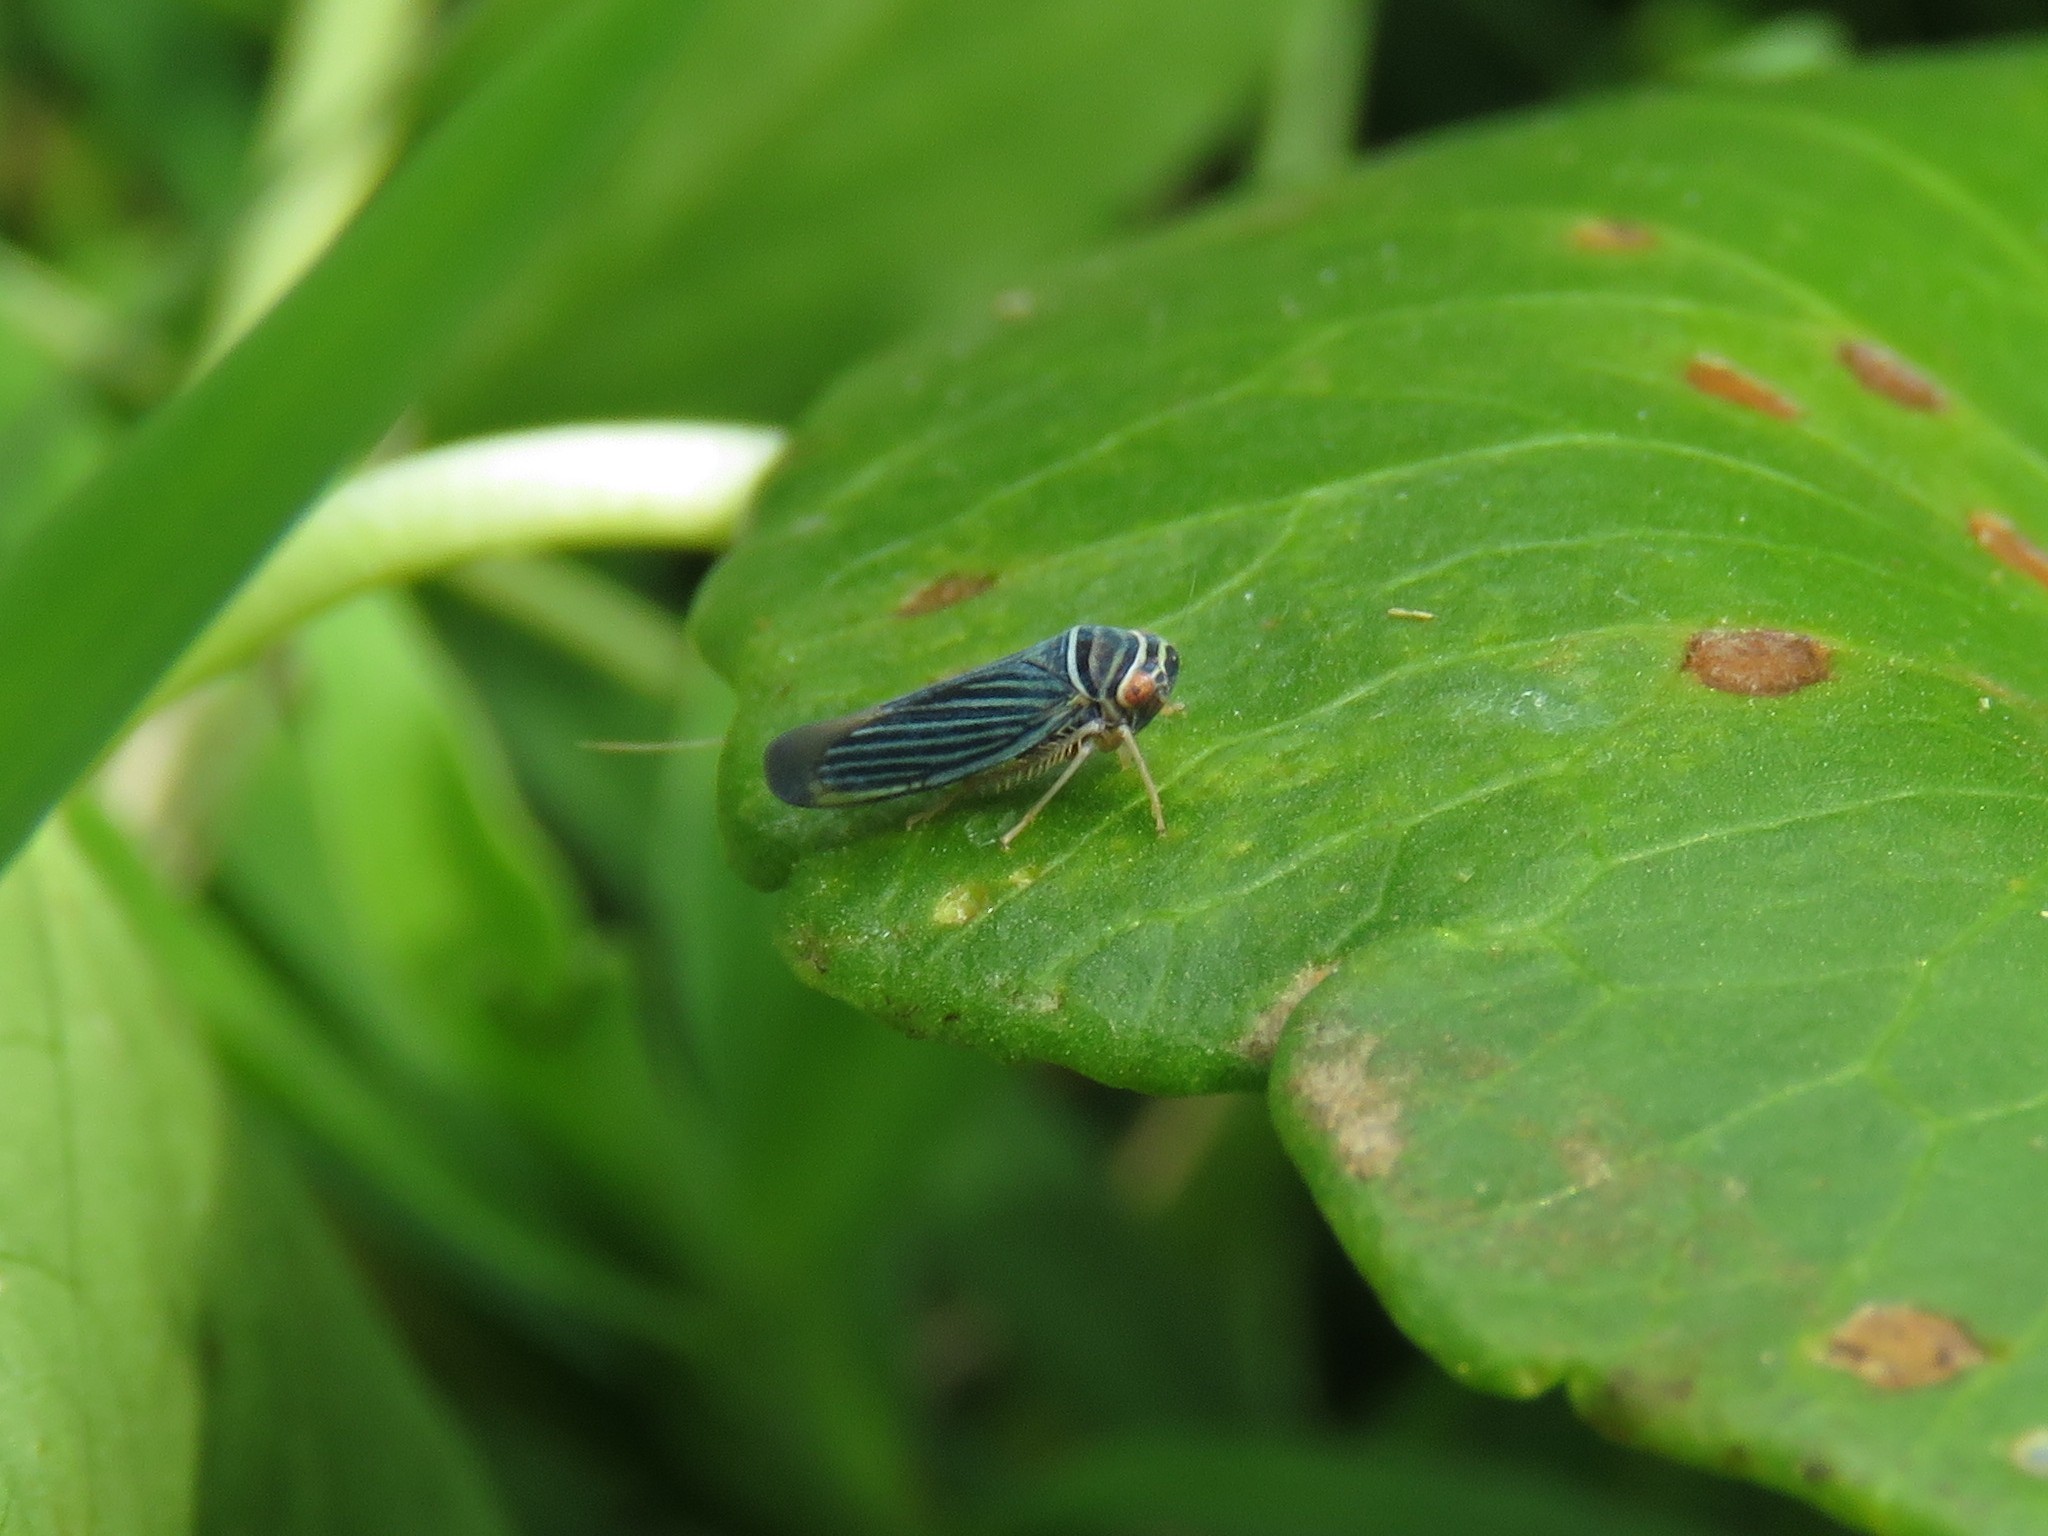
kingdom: Animalia
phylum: Arthropoda
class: Insecta
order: Hemiptera
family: Cicadellidae
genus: Tylozygus
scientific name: Tylozygus bifidus
